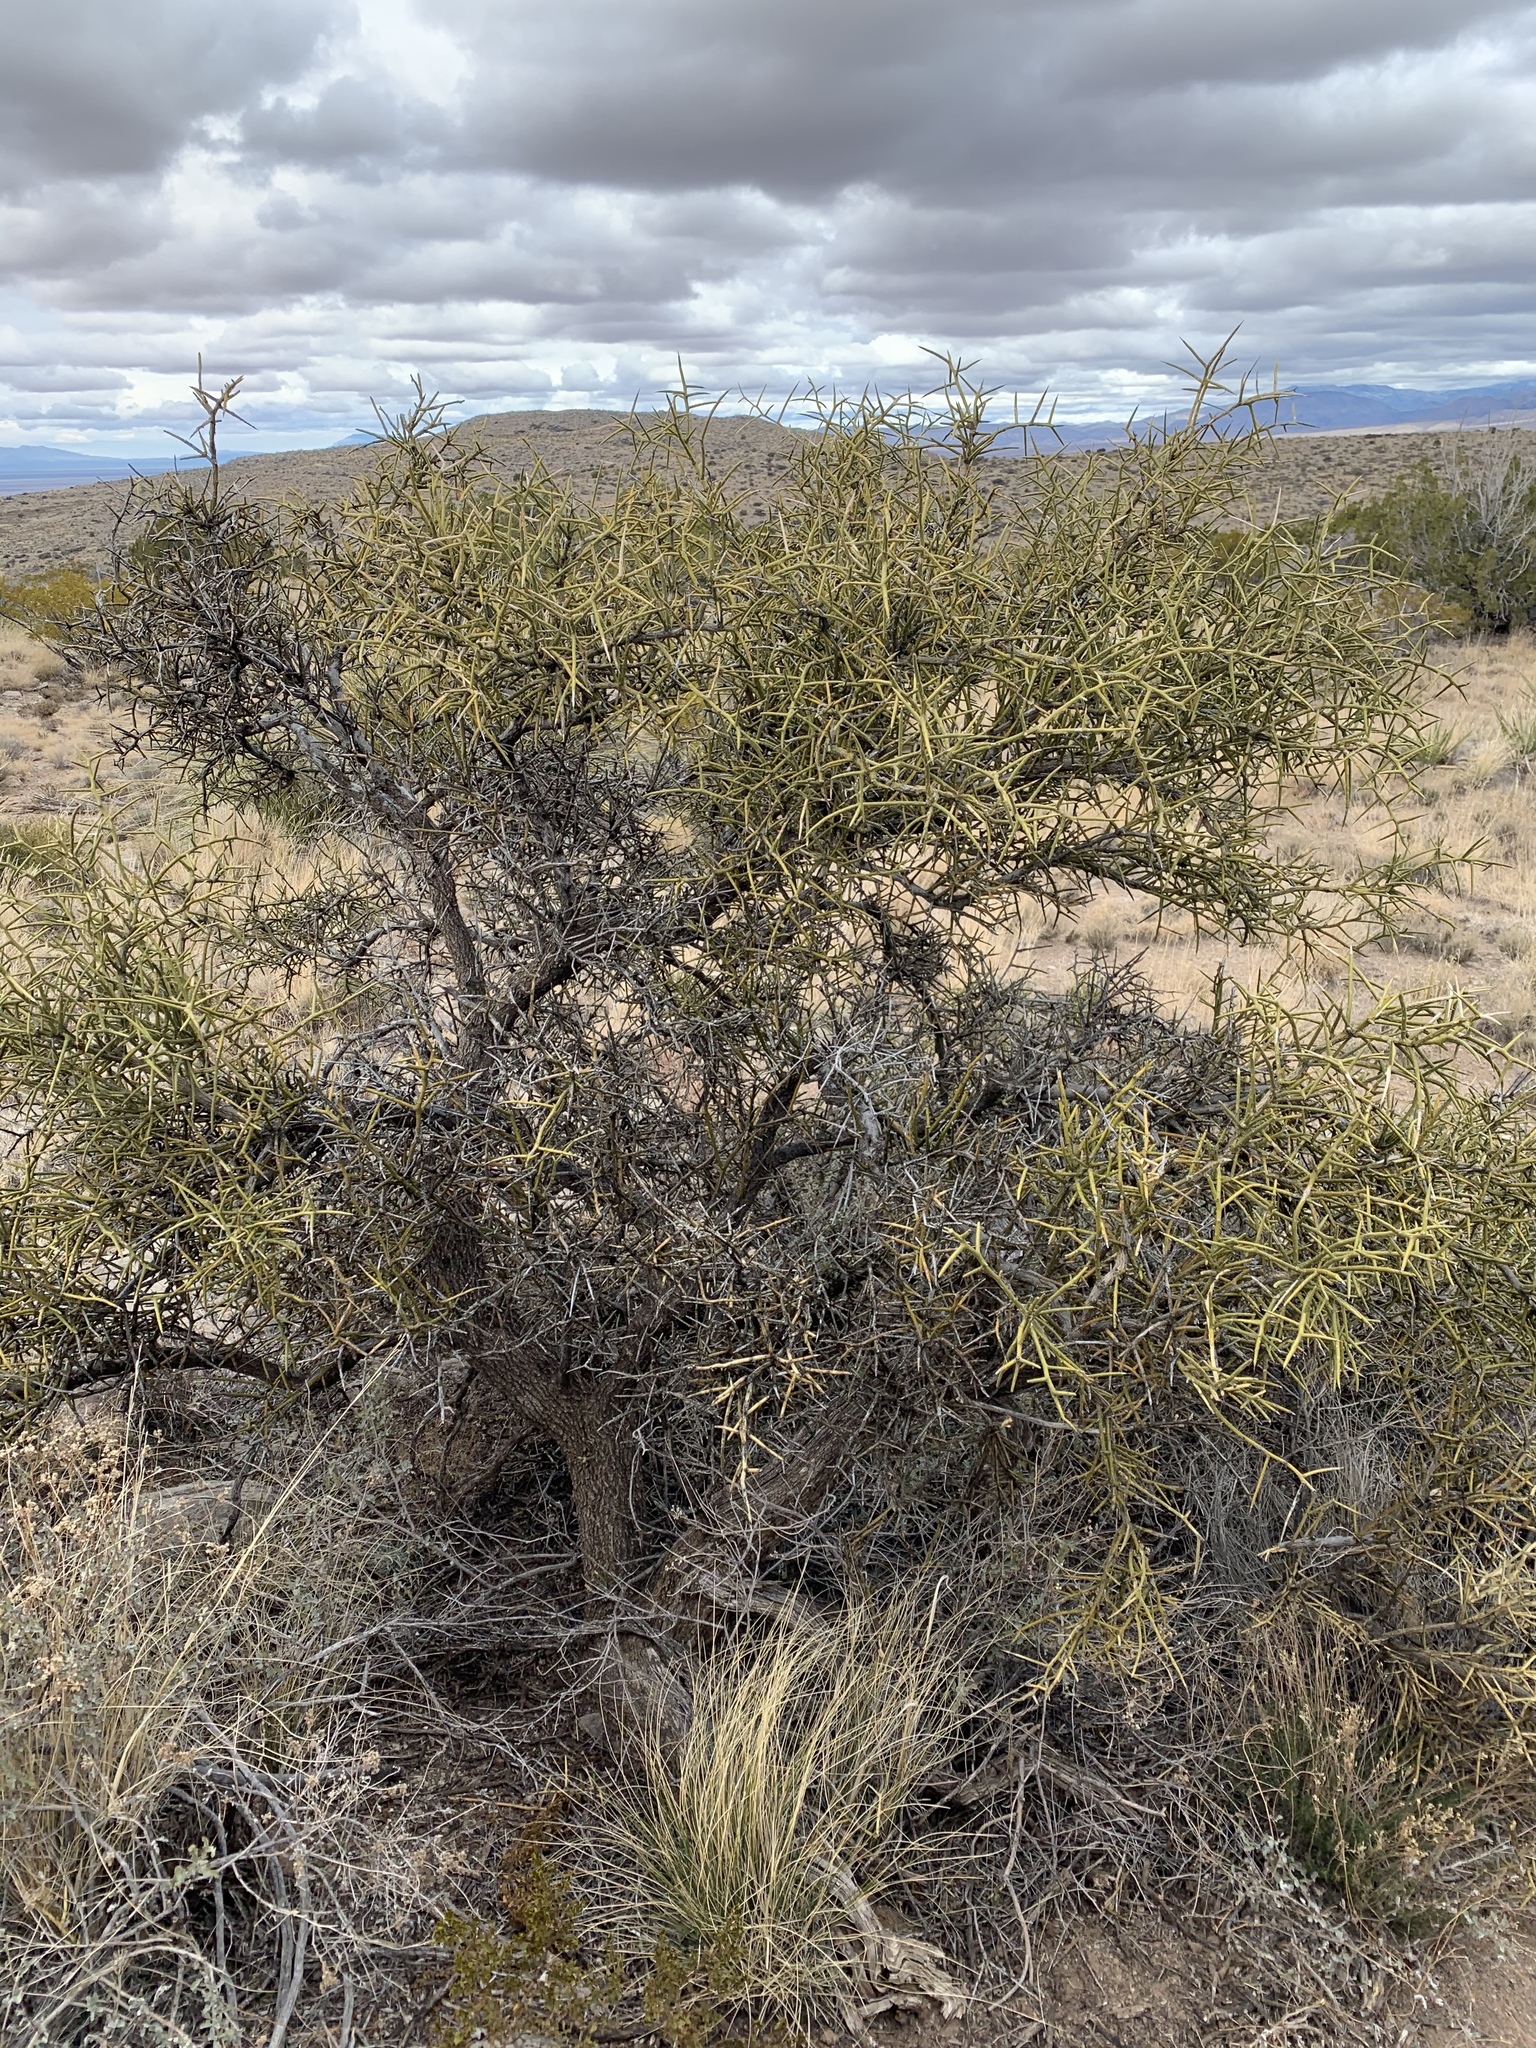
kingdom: Plantae
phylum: Tracheophyta
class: Magnoliopsida
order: Brassicales
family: Koeberliniaceae
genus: Koeberlinia
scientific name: Koeberlinia spinosa
